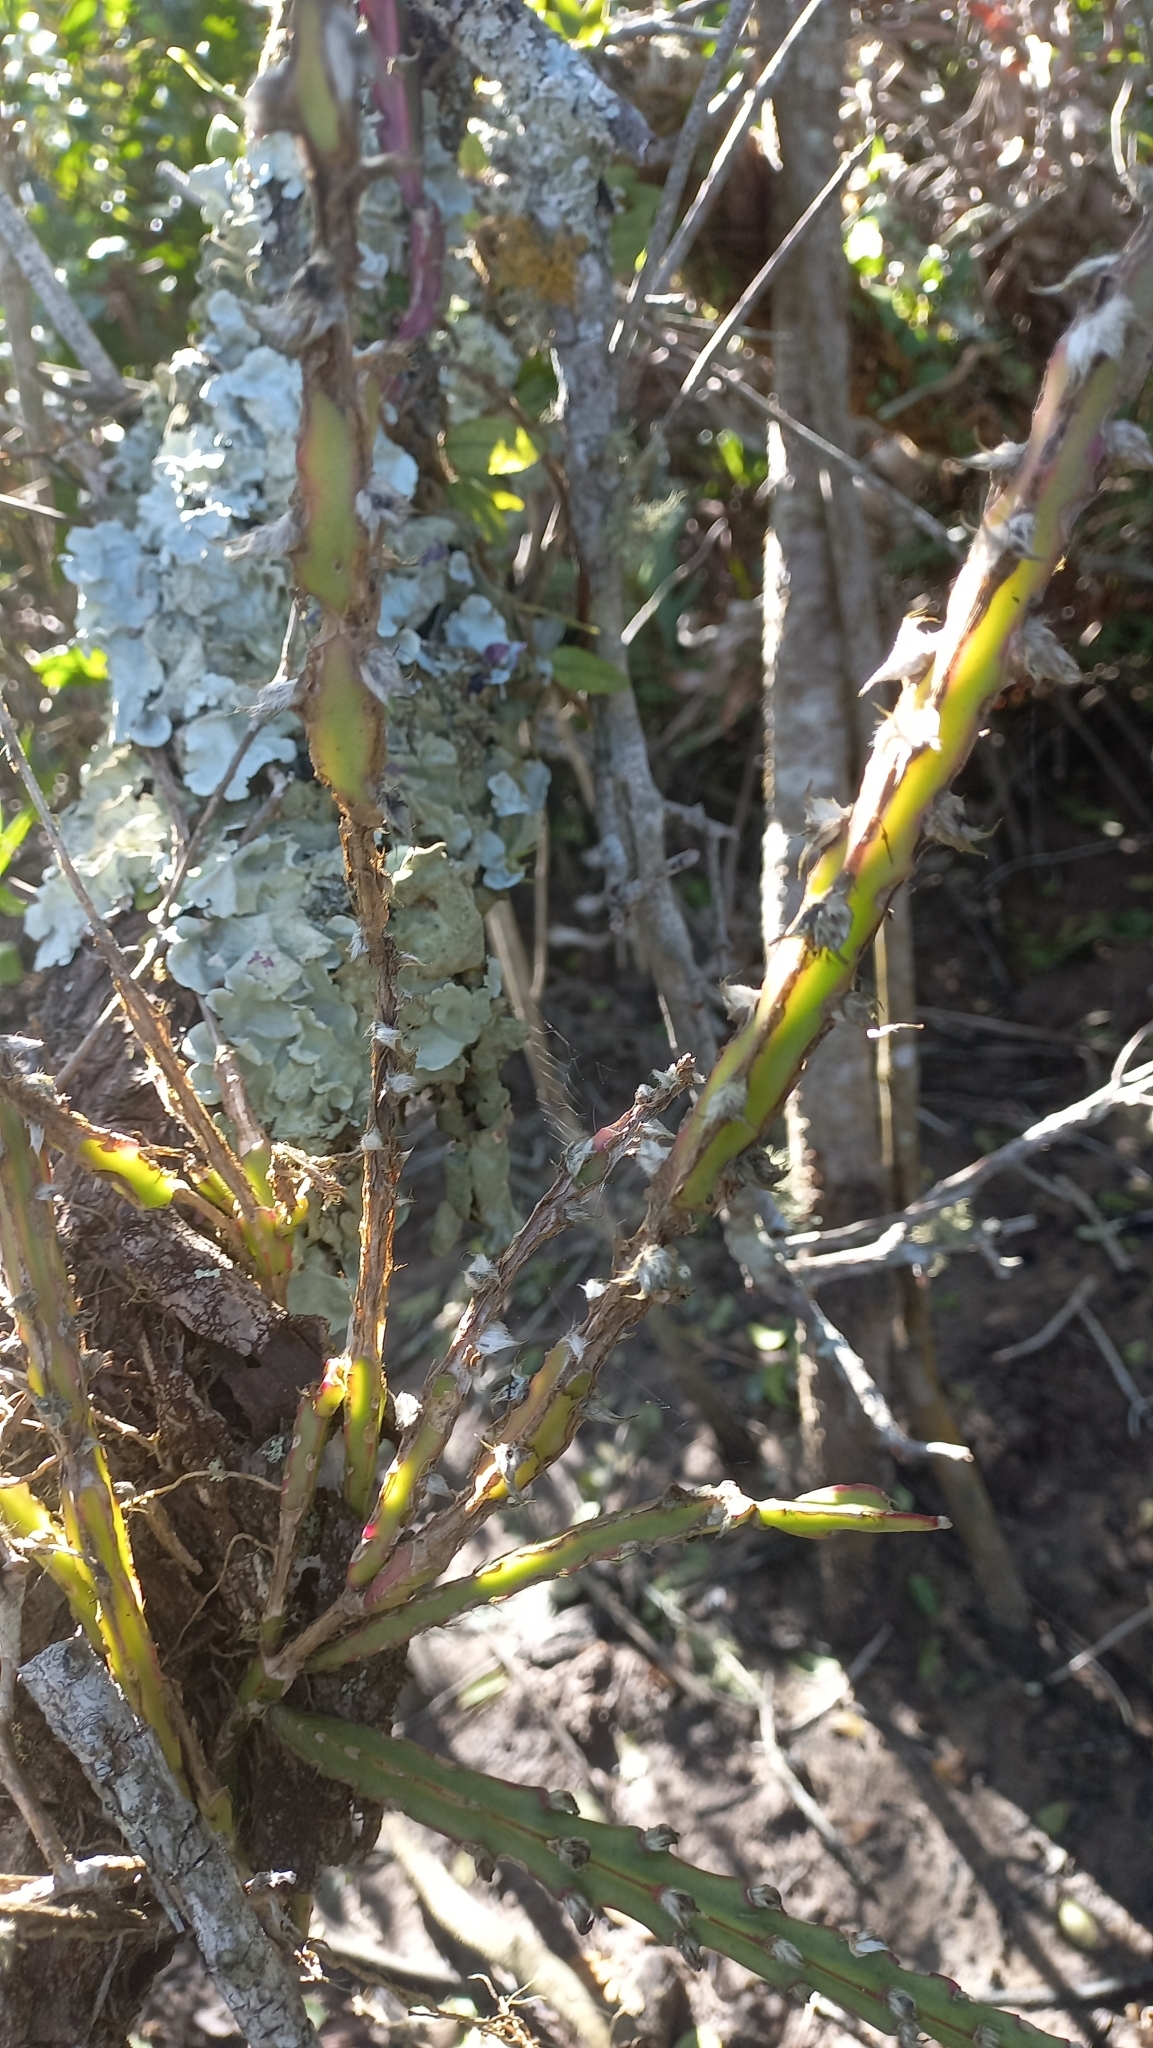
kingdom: Plantae
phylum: Tracheophyta
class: Magnoliopsida
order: Caryophyllales
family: Cactaceae
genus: Lepismium
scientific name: Lepismium cruciforme
